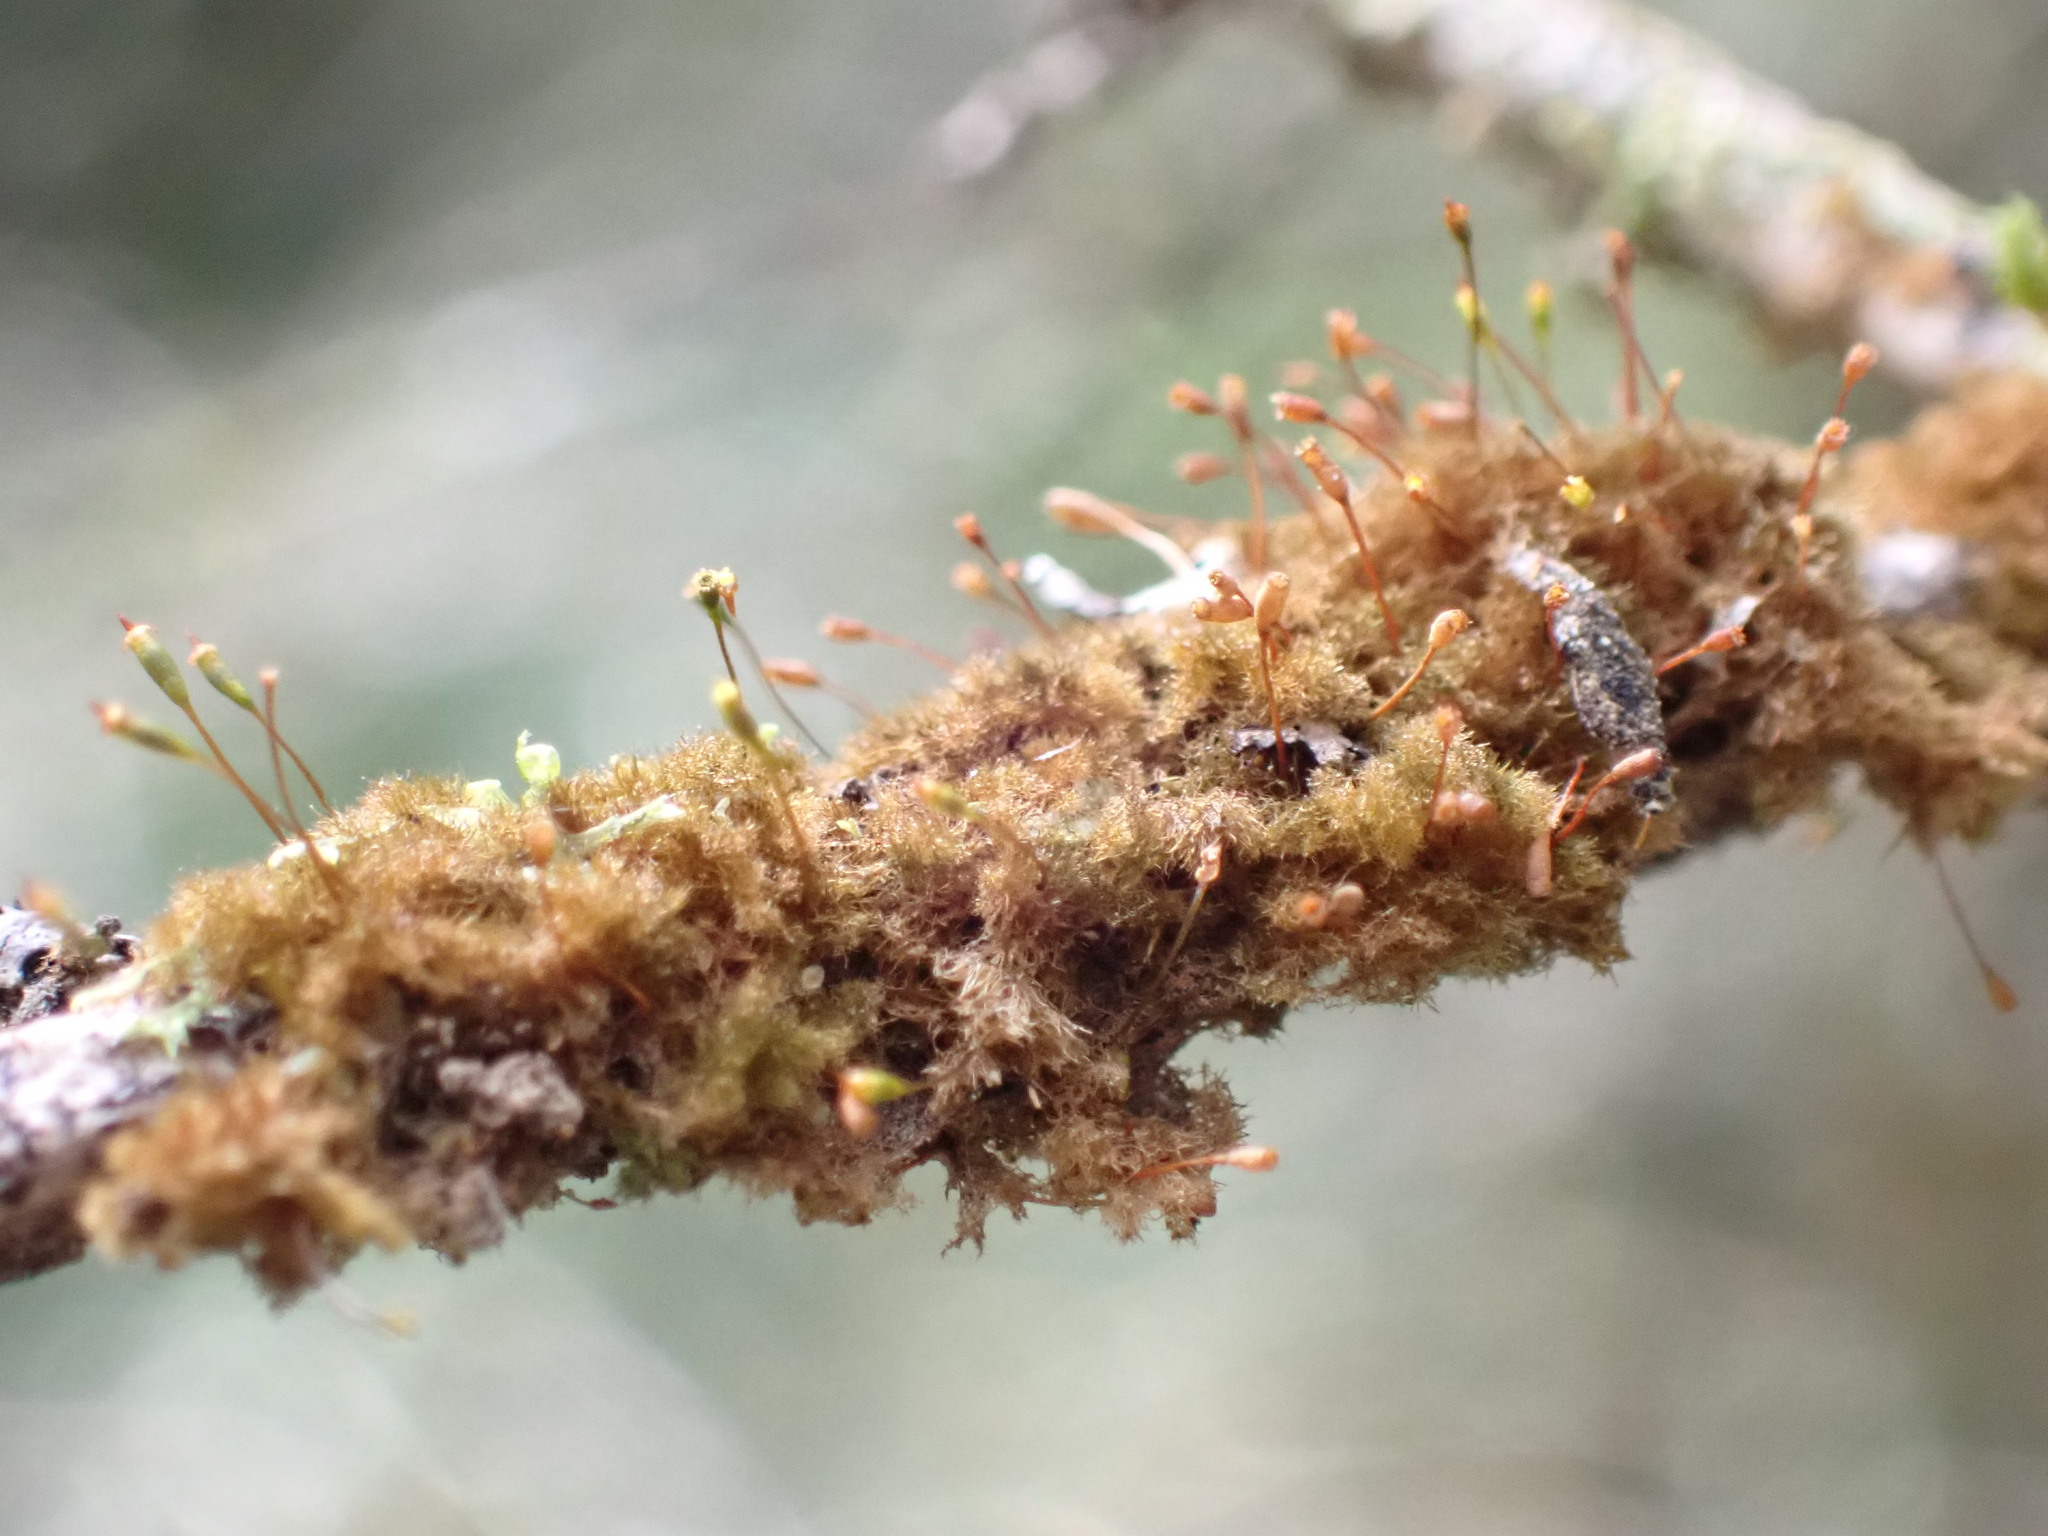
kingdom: Plantae
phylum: Bryophyta
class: Bryopsida
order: Hookeriales
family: Daltoniaceae
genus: Ephemeropsis
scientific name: Ephemeropsis trentepohlioides
